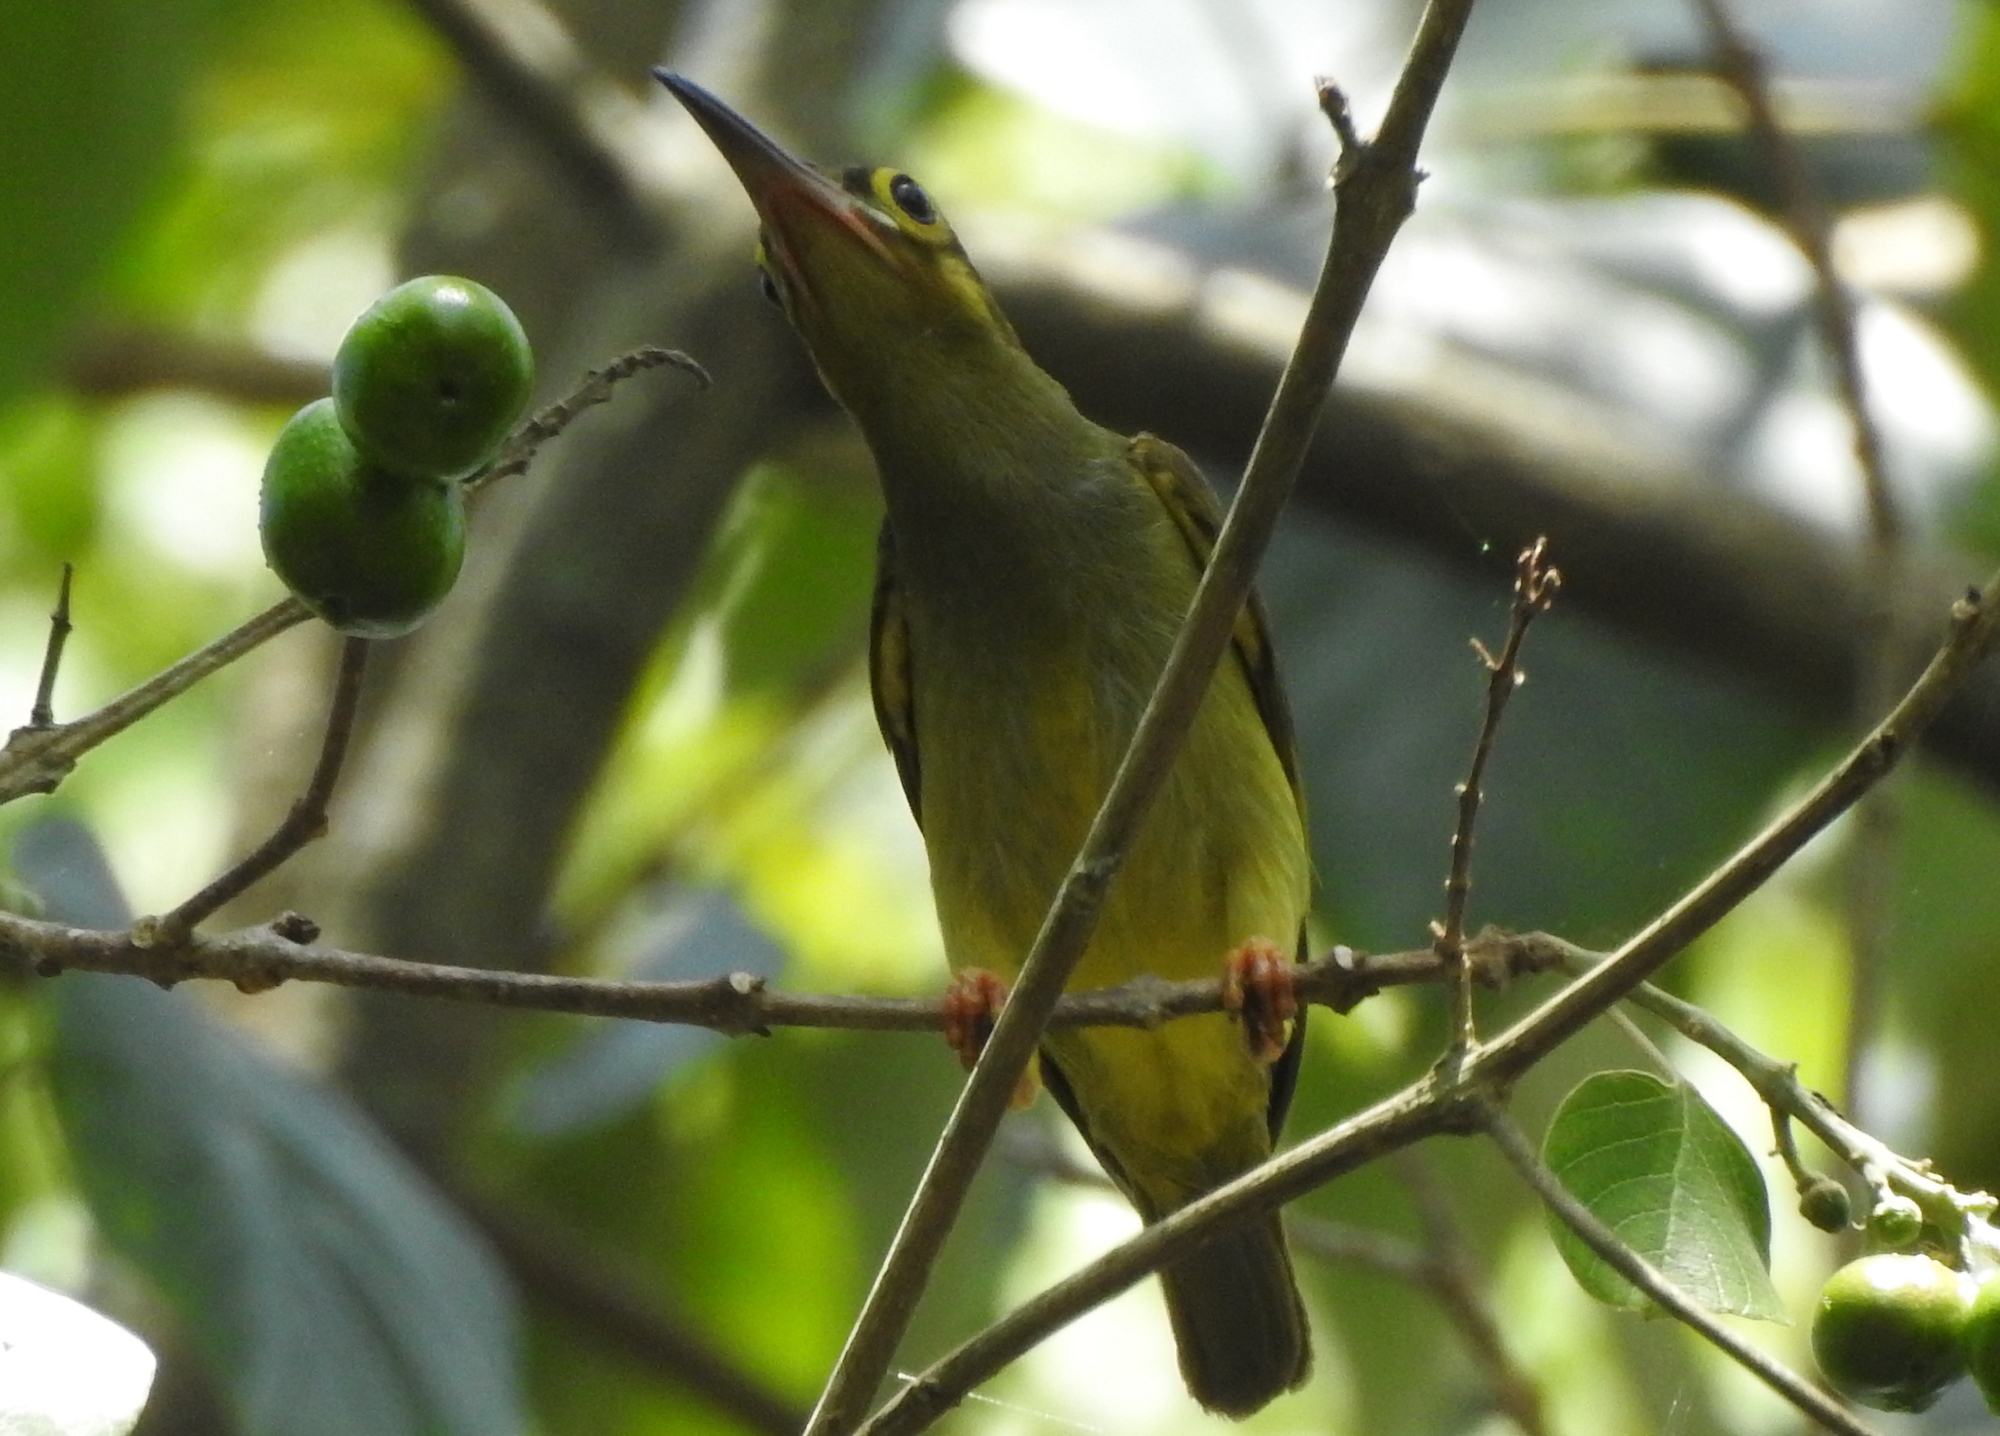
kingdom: Animalia
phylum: Chordata
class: Aves
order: Passeriformes
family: Nectariniidae
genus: Arachnothera
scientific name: Arachnothera flavigaster
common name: Spectacled spiderhunter
